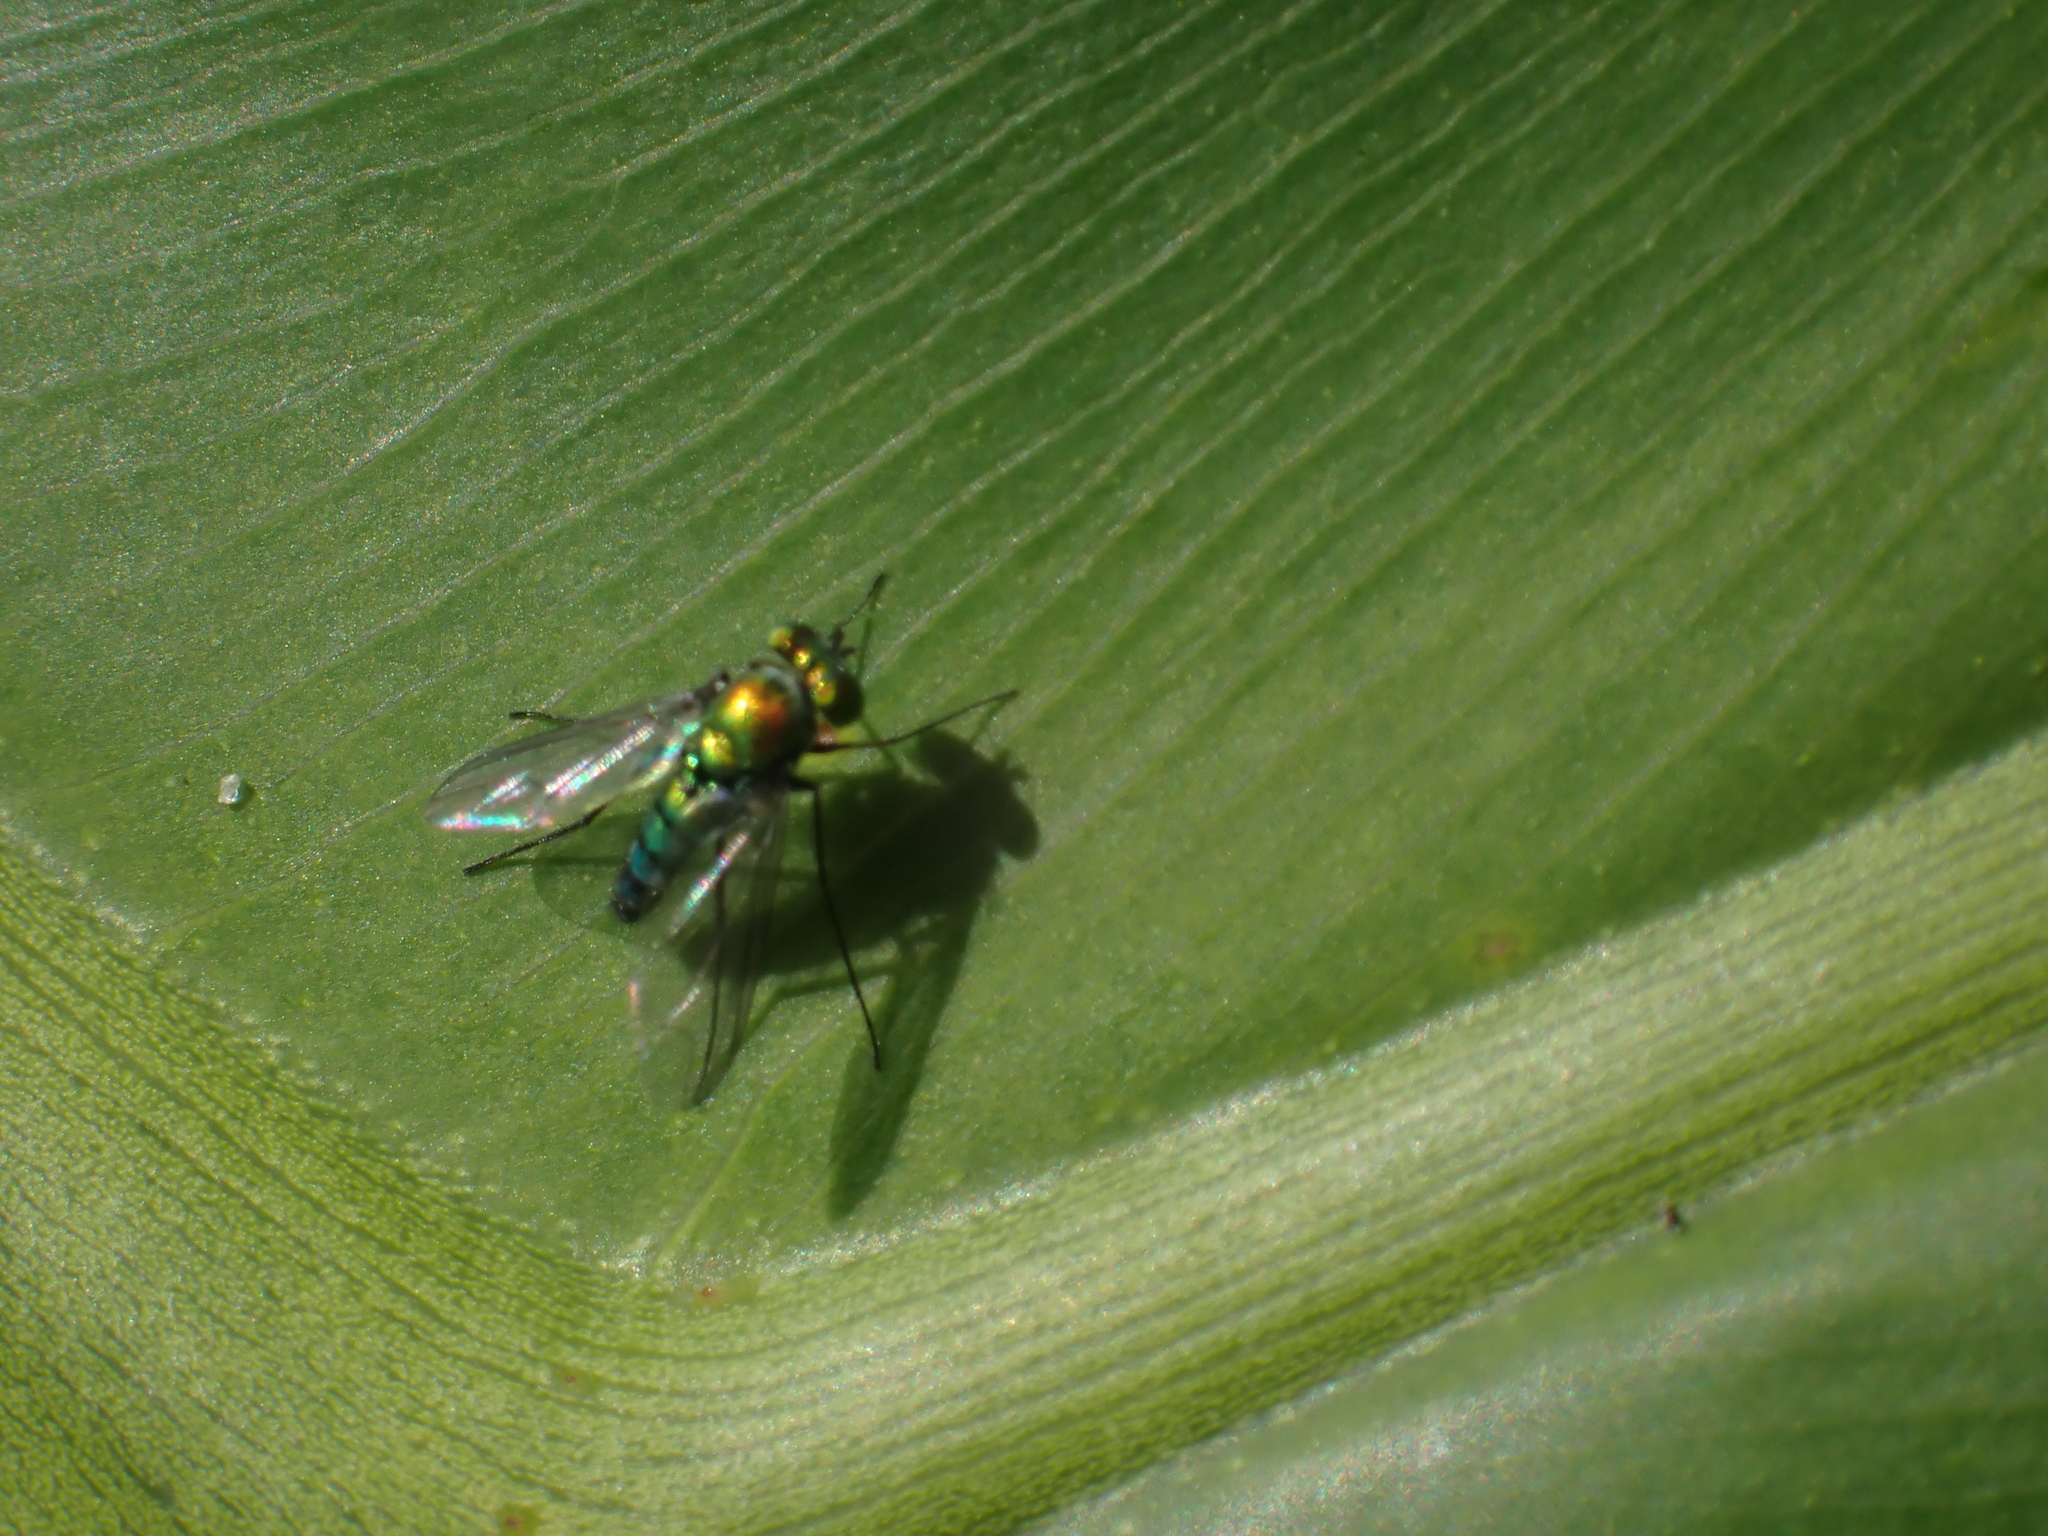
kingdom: Animalia
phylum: Arthropoda
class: Insecta
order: Diptera
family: Dolichopodidae
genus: Condylostylus
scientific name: Condylostylus longicornis
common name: Long-legged fly
